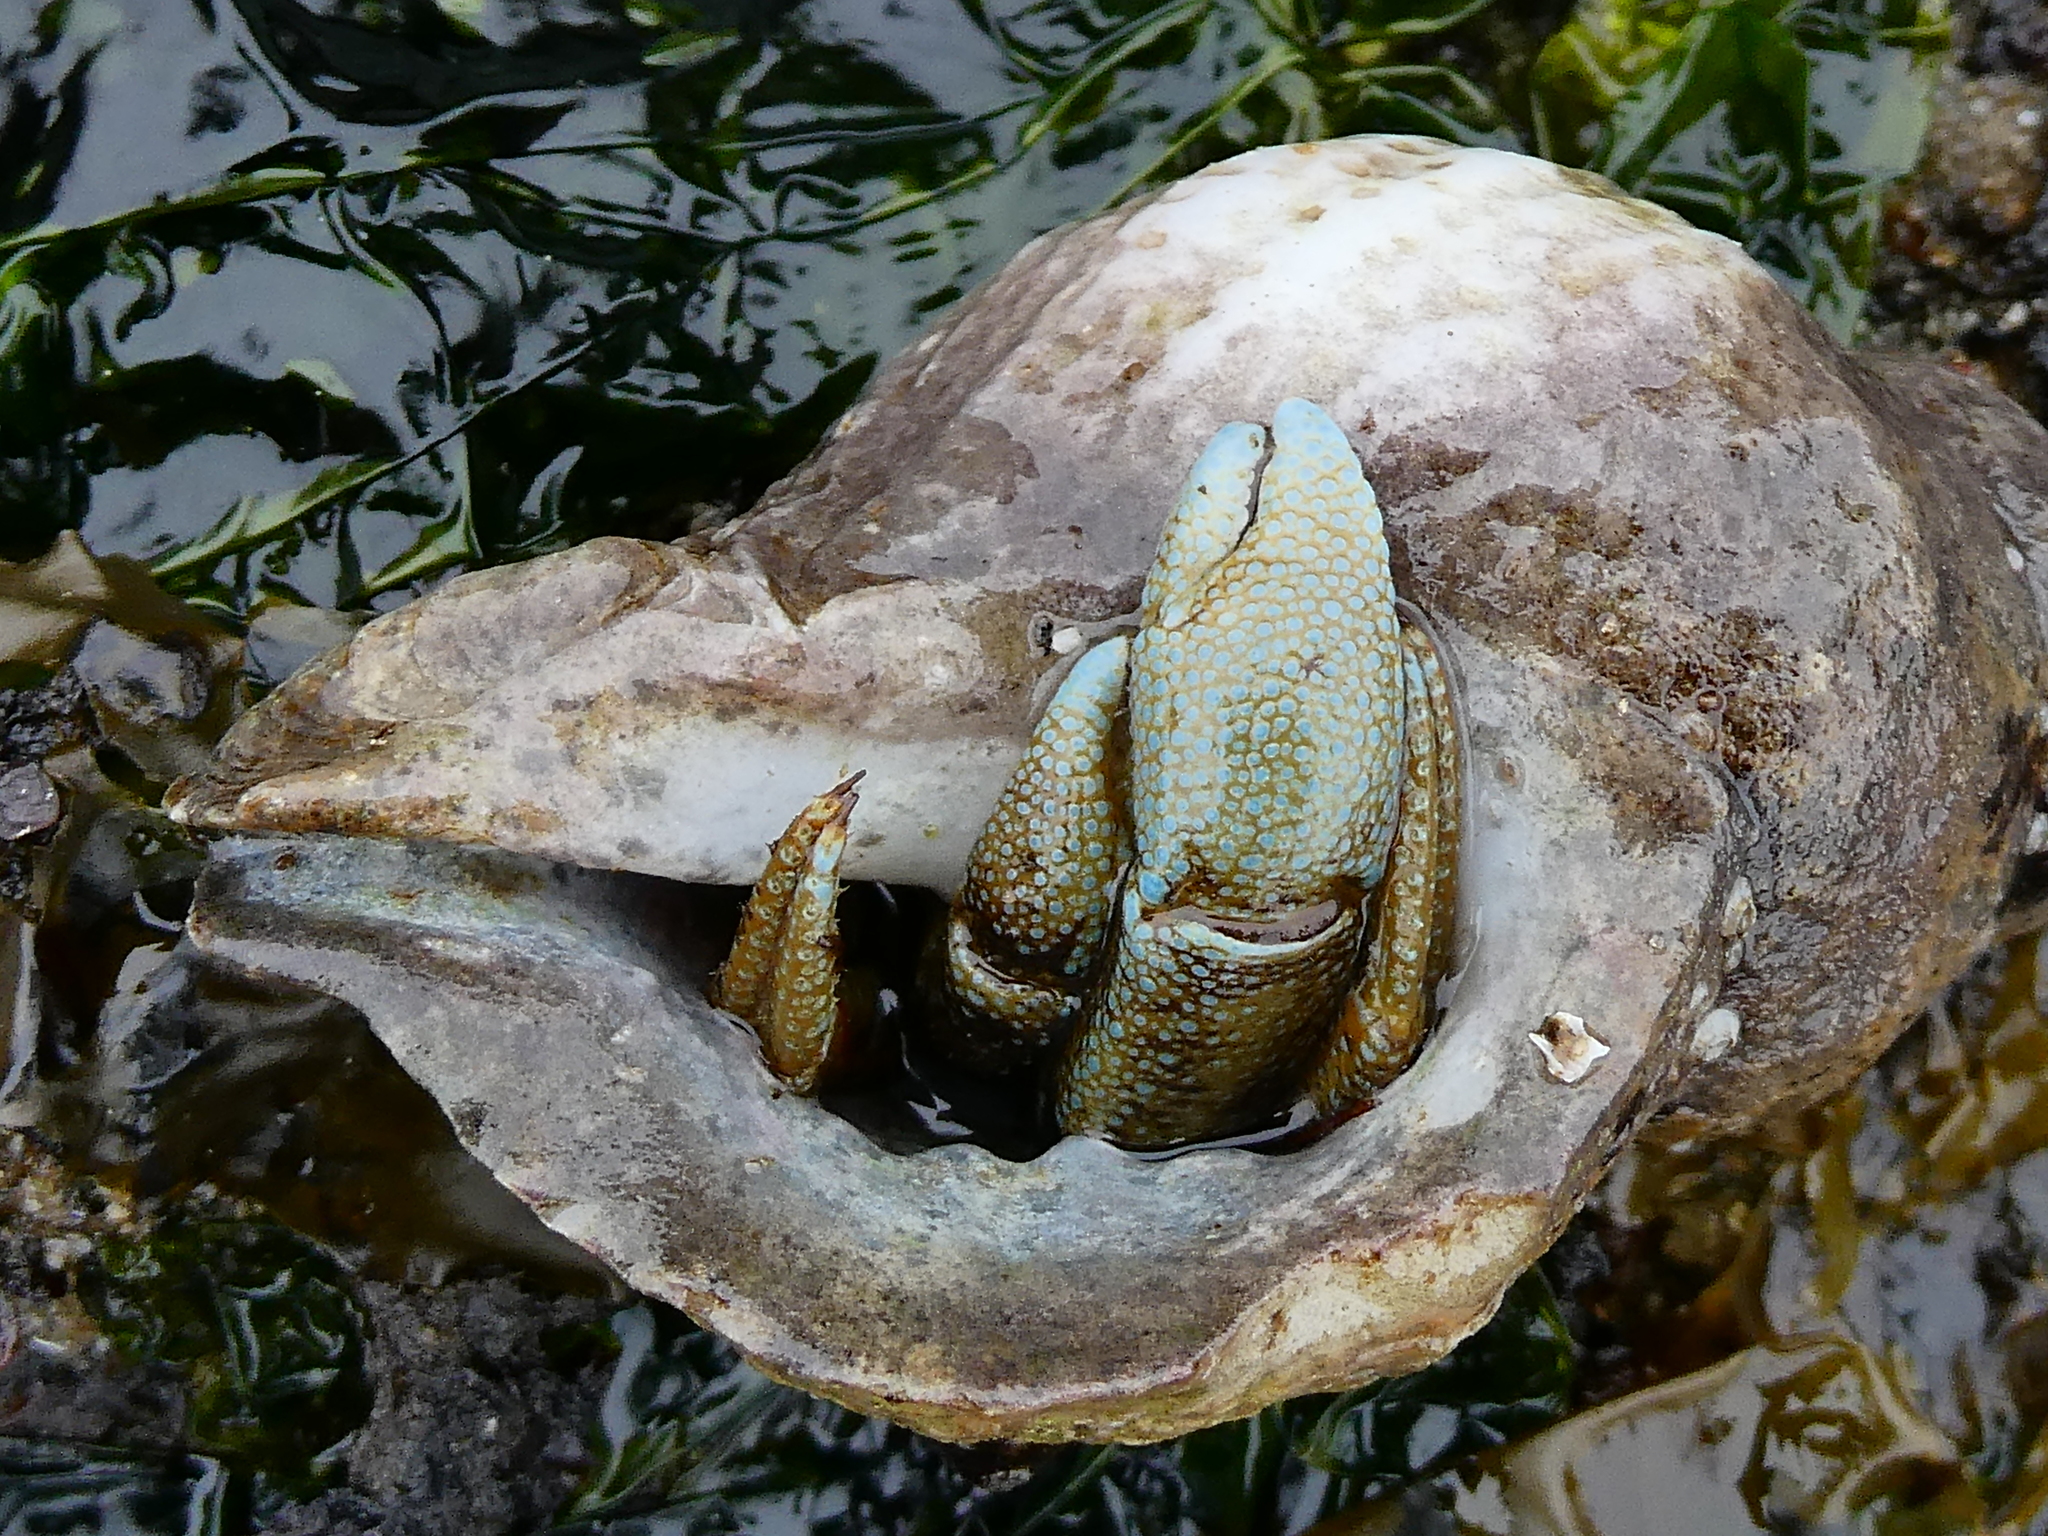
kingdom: Animalia
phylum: Arthropoda
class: Malacostraca
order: Decapoda
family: Paguridae
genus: Pagurus
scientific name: Pagurus granosimanus
